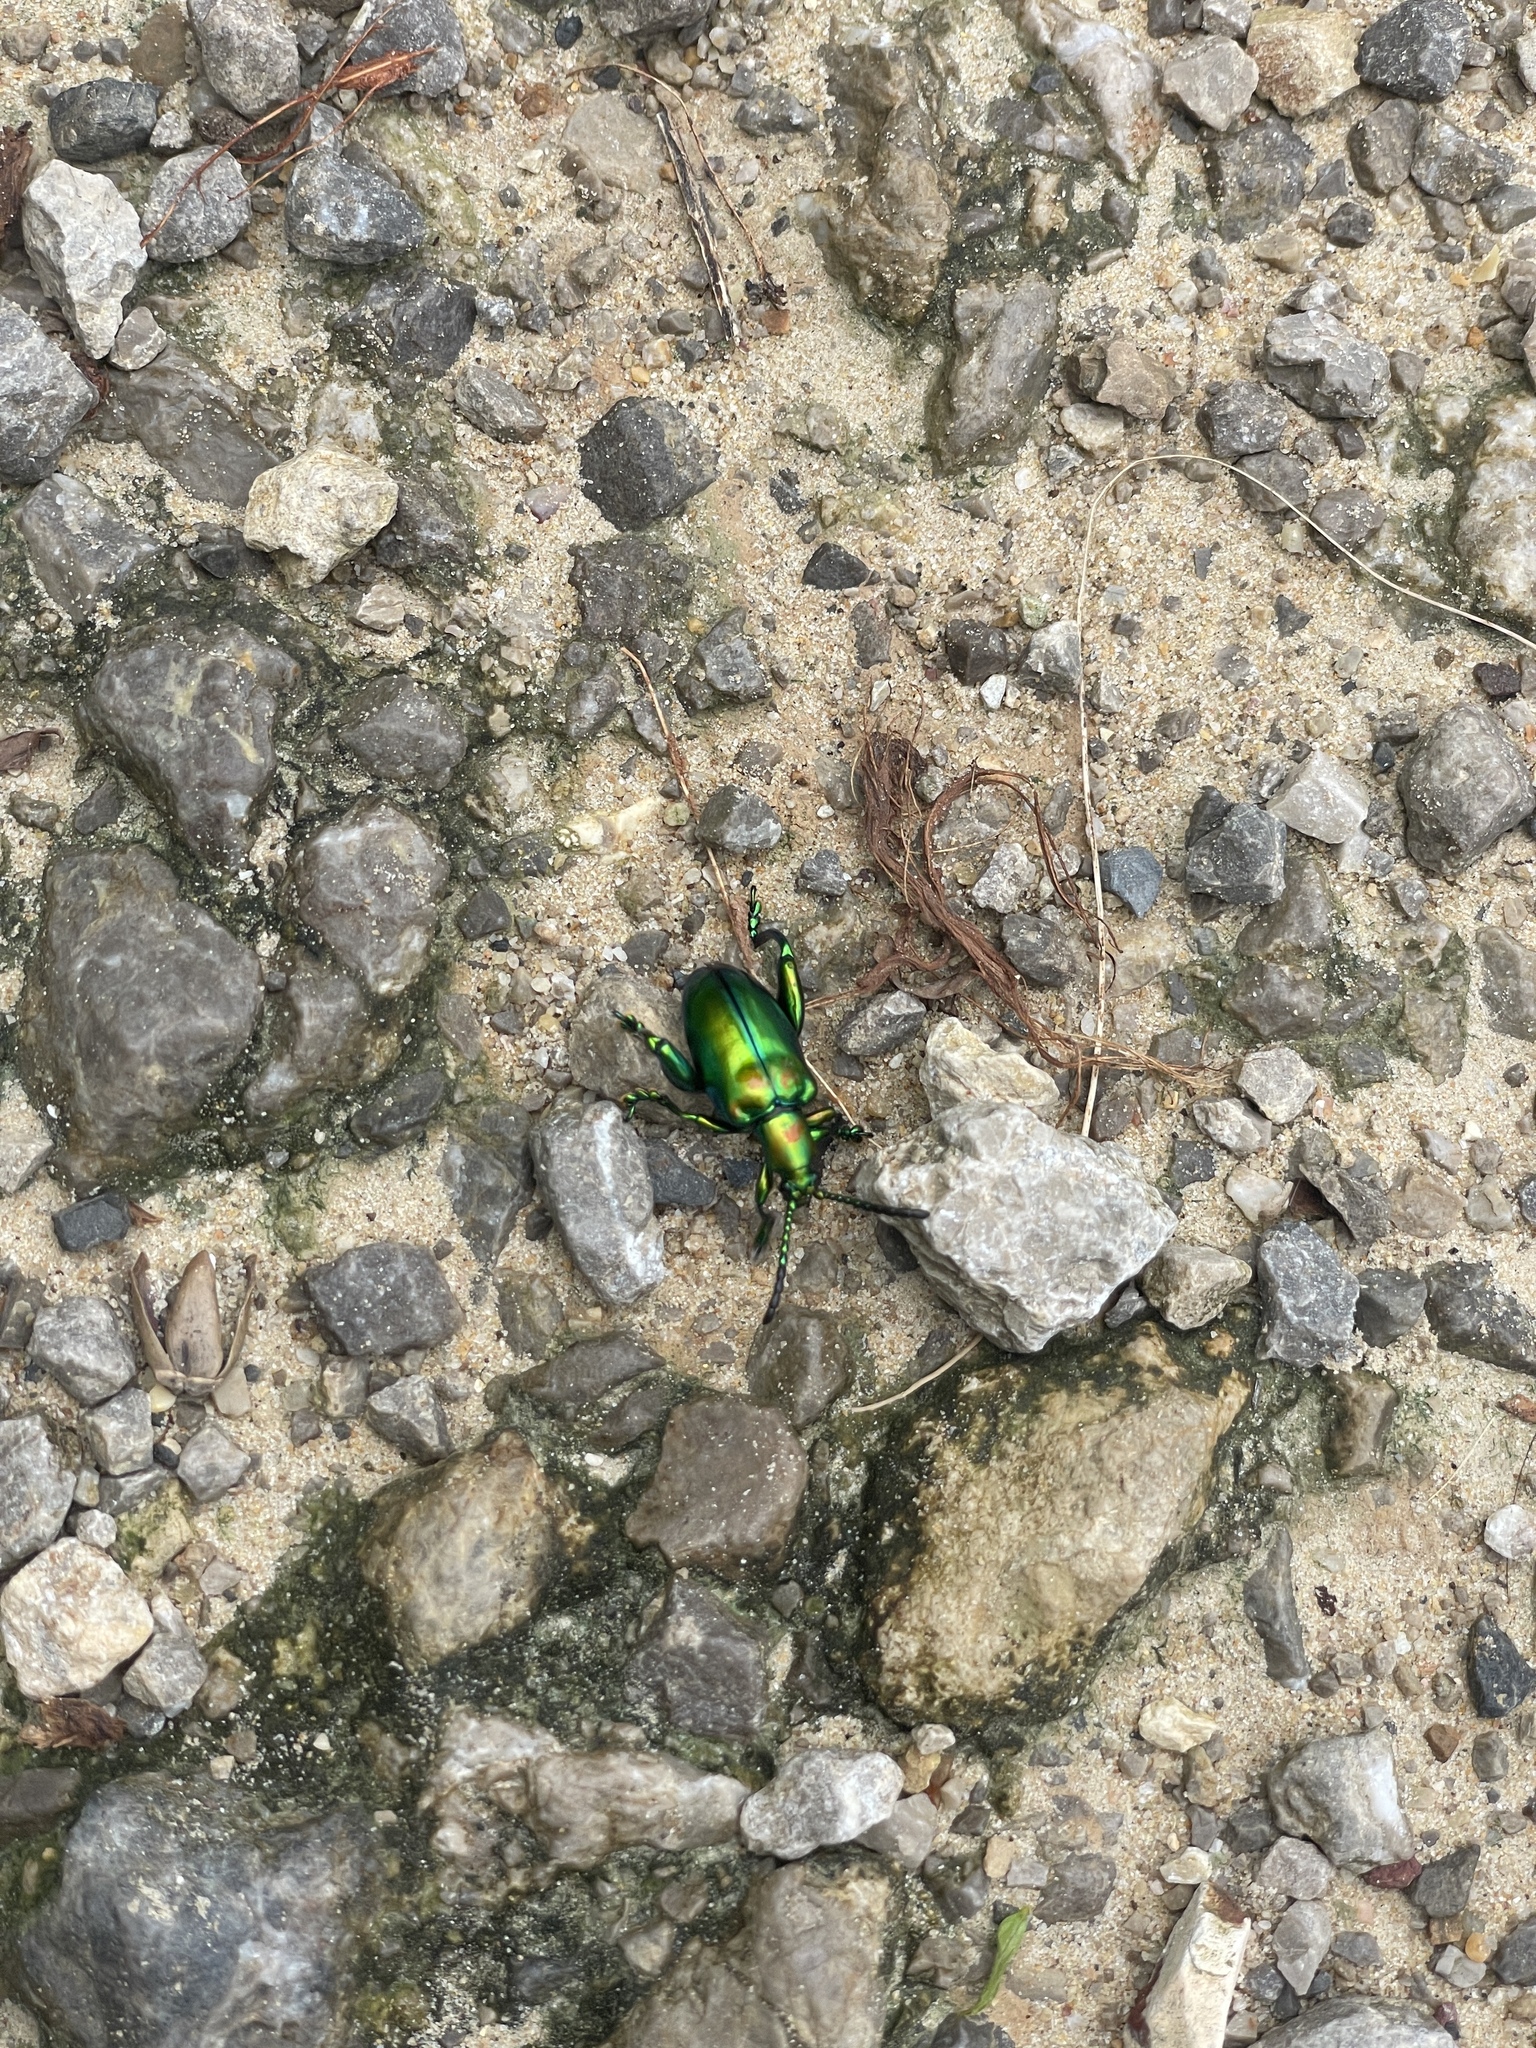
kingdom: Animalia
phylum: Arthropoda
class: Insecta
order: Coleoptera
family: Chrysomelidae
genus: Sagra
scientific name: Sagra femorata
